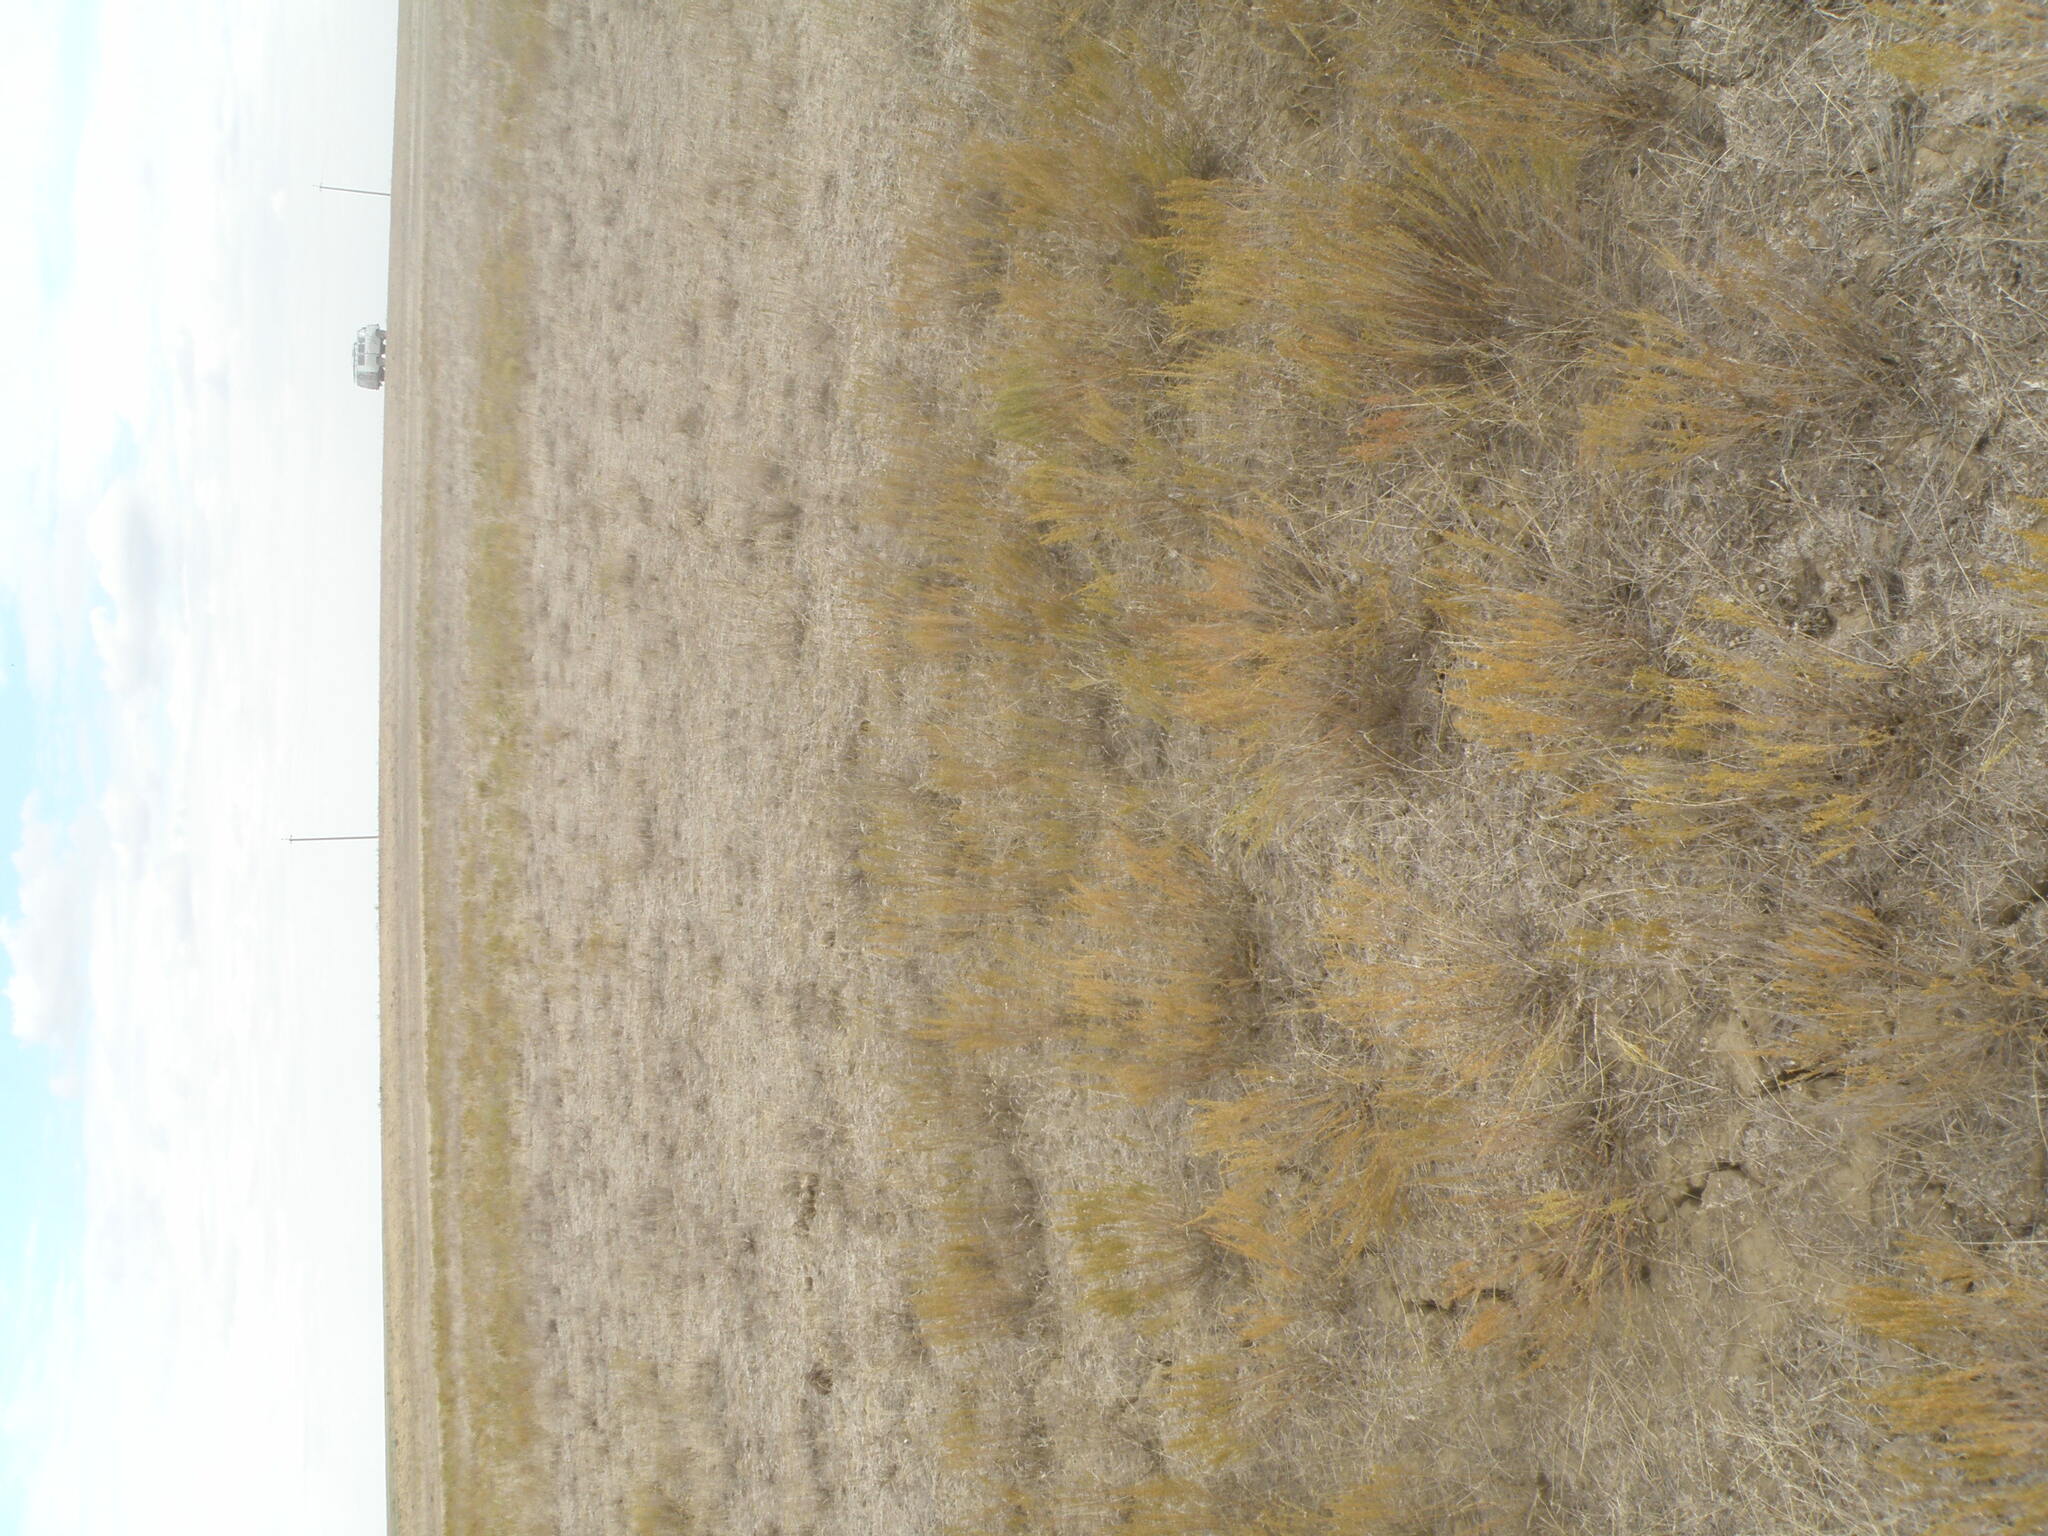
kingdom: Plantae
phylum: Tracheophyta
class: Magnoliopsida
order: Asterales
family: Asteraceae
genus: Artemisia
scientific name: Artemisia pauciflora
